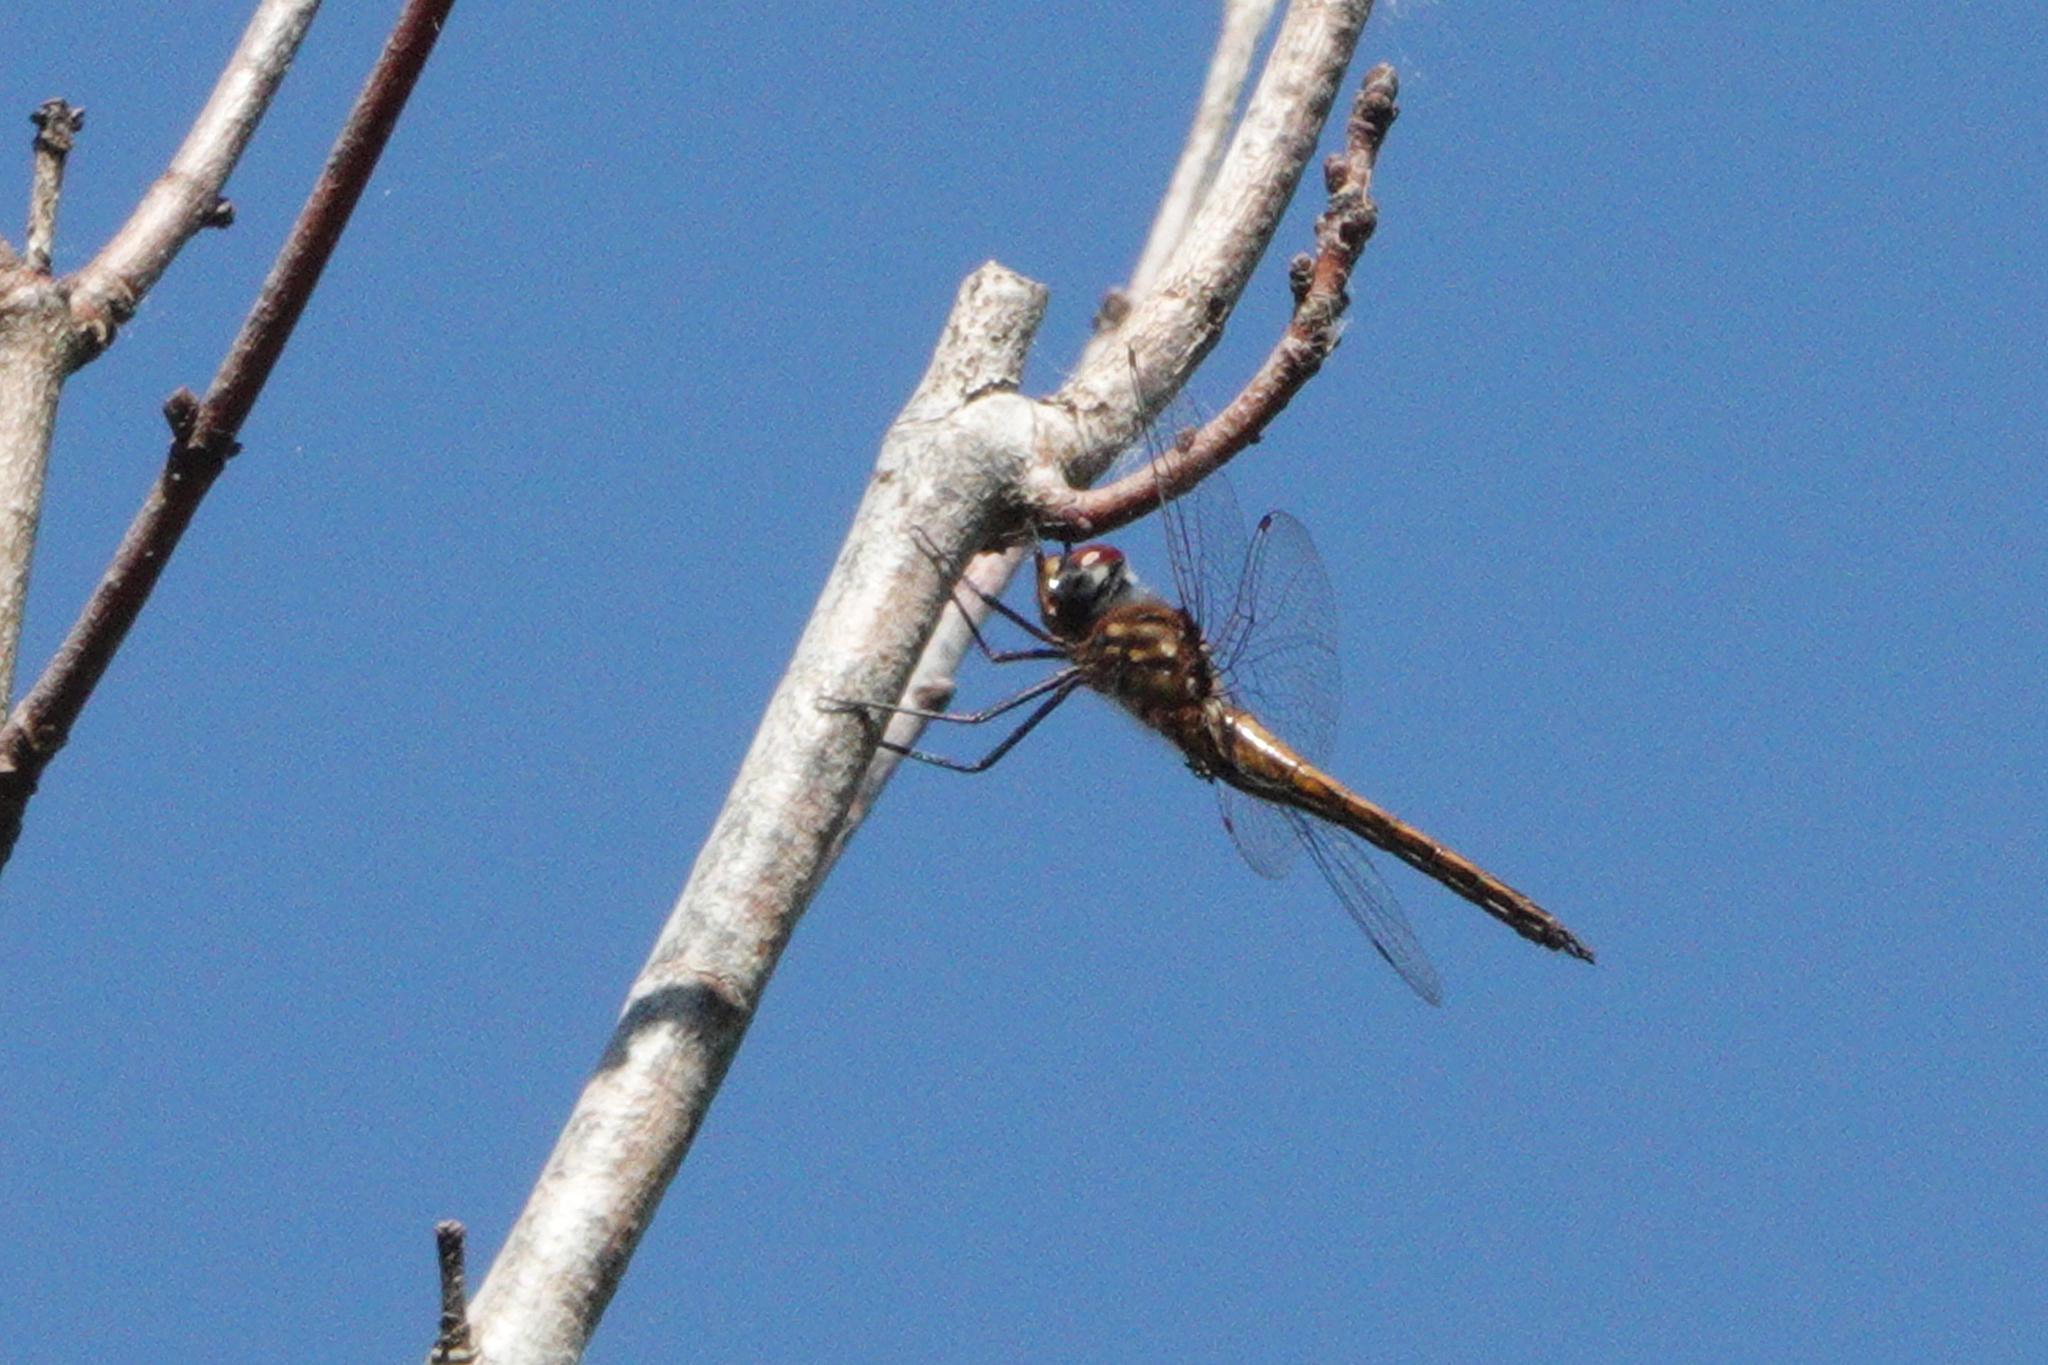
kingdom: Animalia
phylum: Arthropoda
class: Insecta
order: Odonata
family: Corduliidae
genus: Epitheca
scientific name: Epitheca sepia
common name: Sepia baskettail
